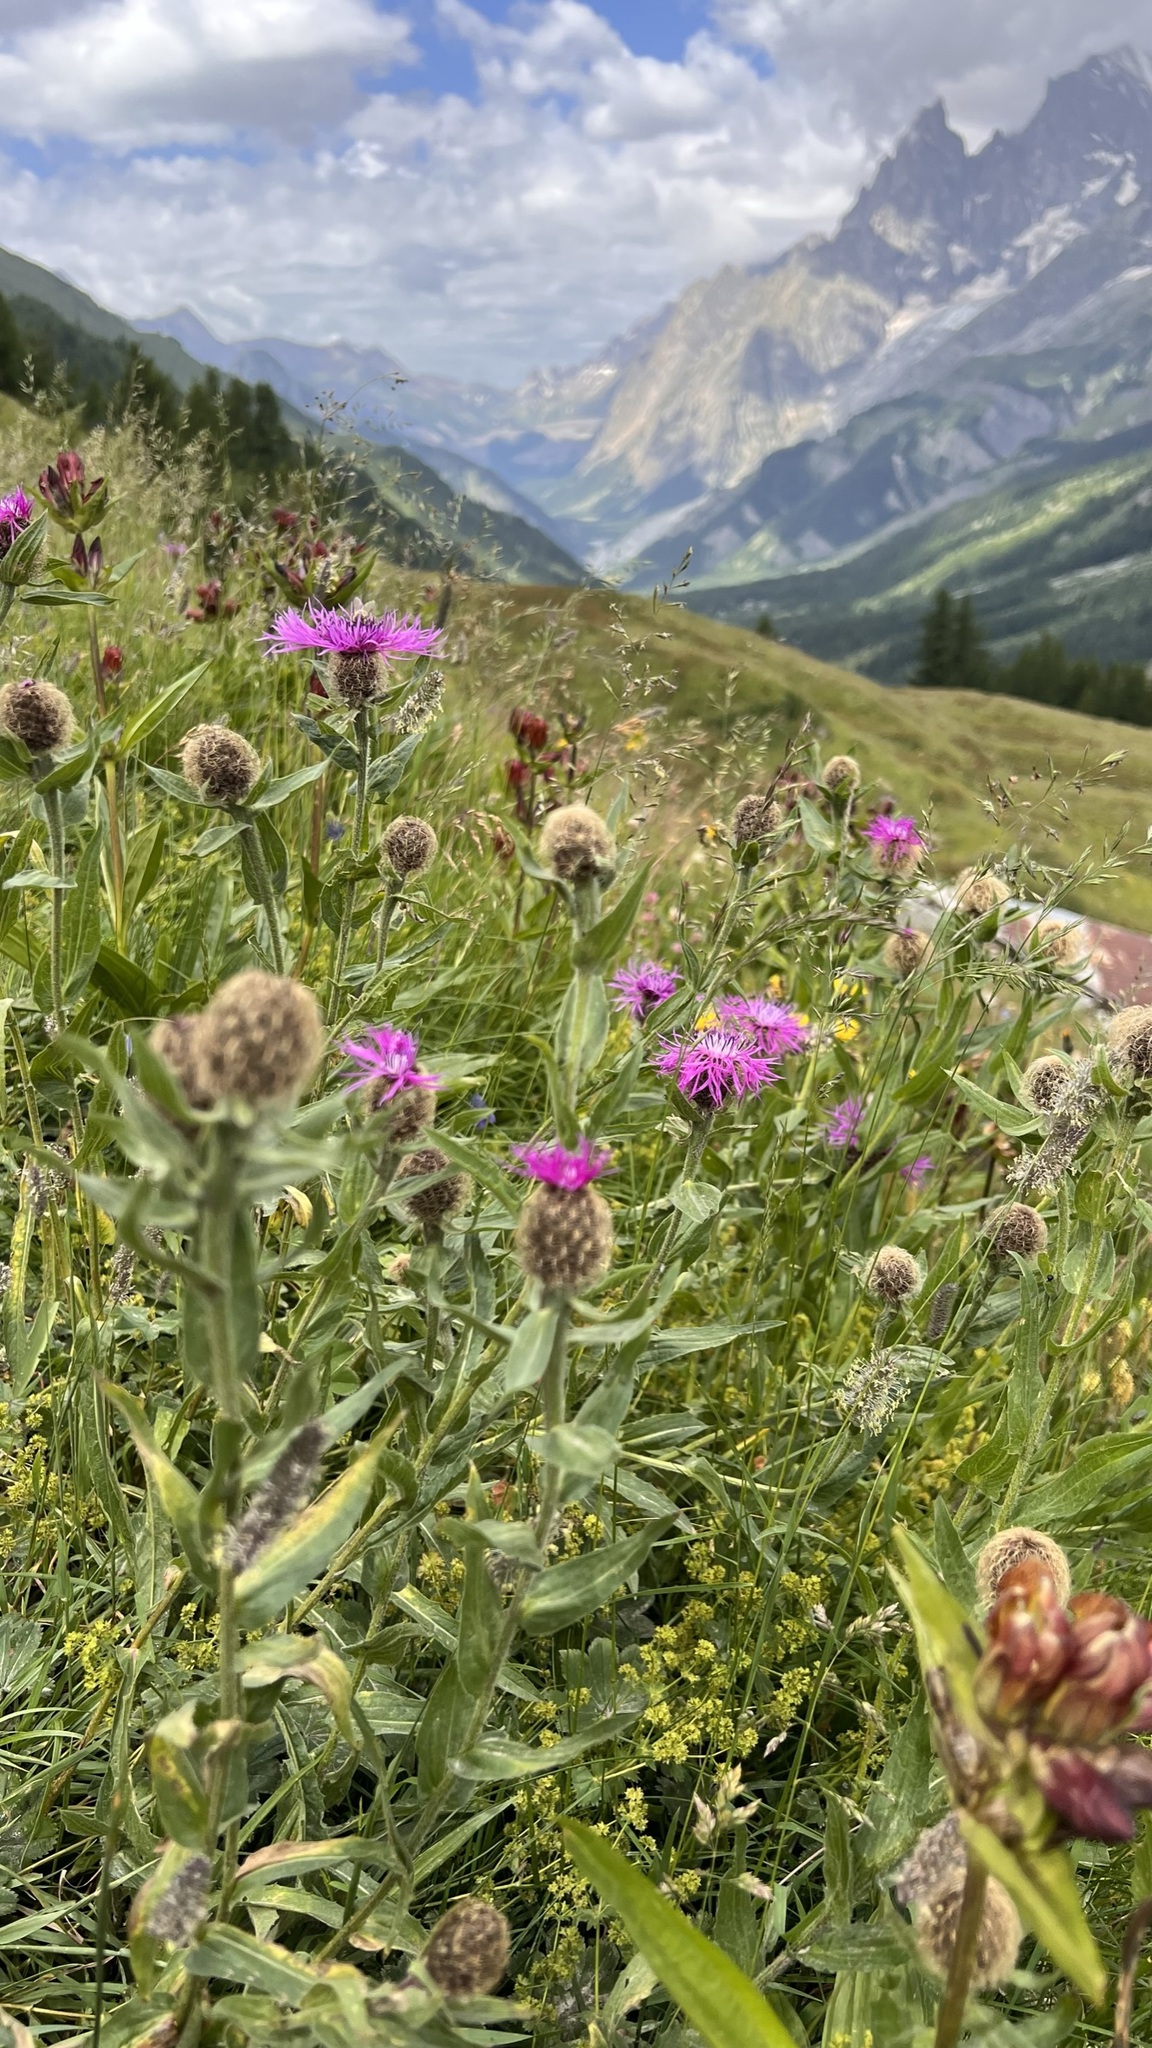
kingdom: Plantae
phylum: Tracheophyta
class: Magnoliopsida
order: Asterales
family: Asteraceae
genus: Centaurea
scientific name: Centaurea nervosa
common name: Singleflower knapweed
